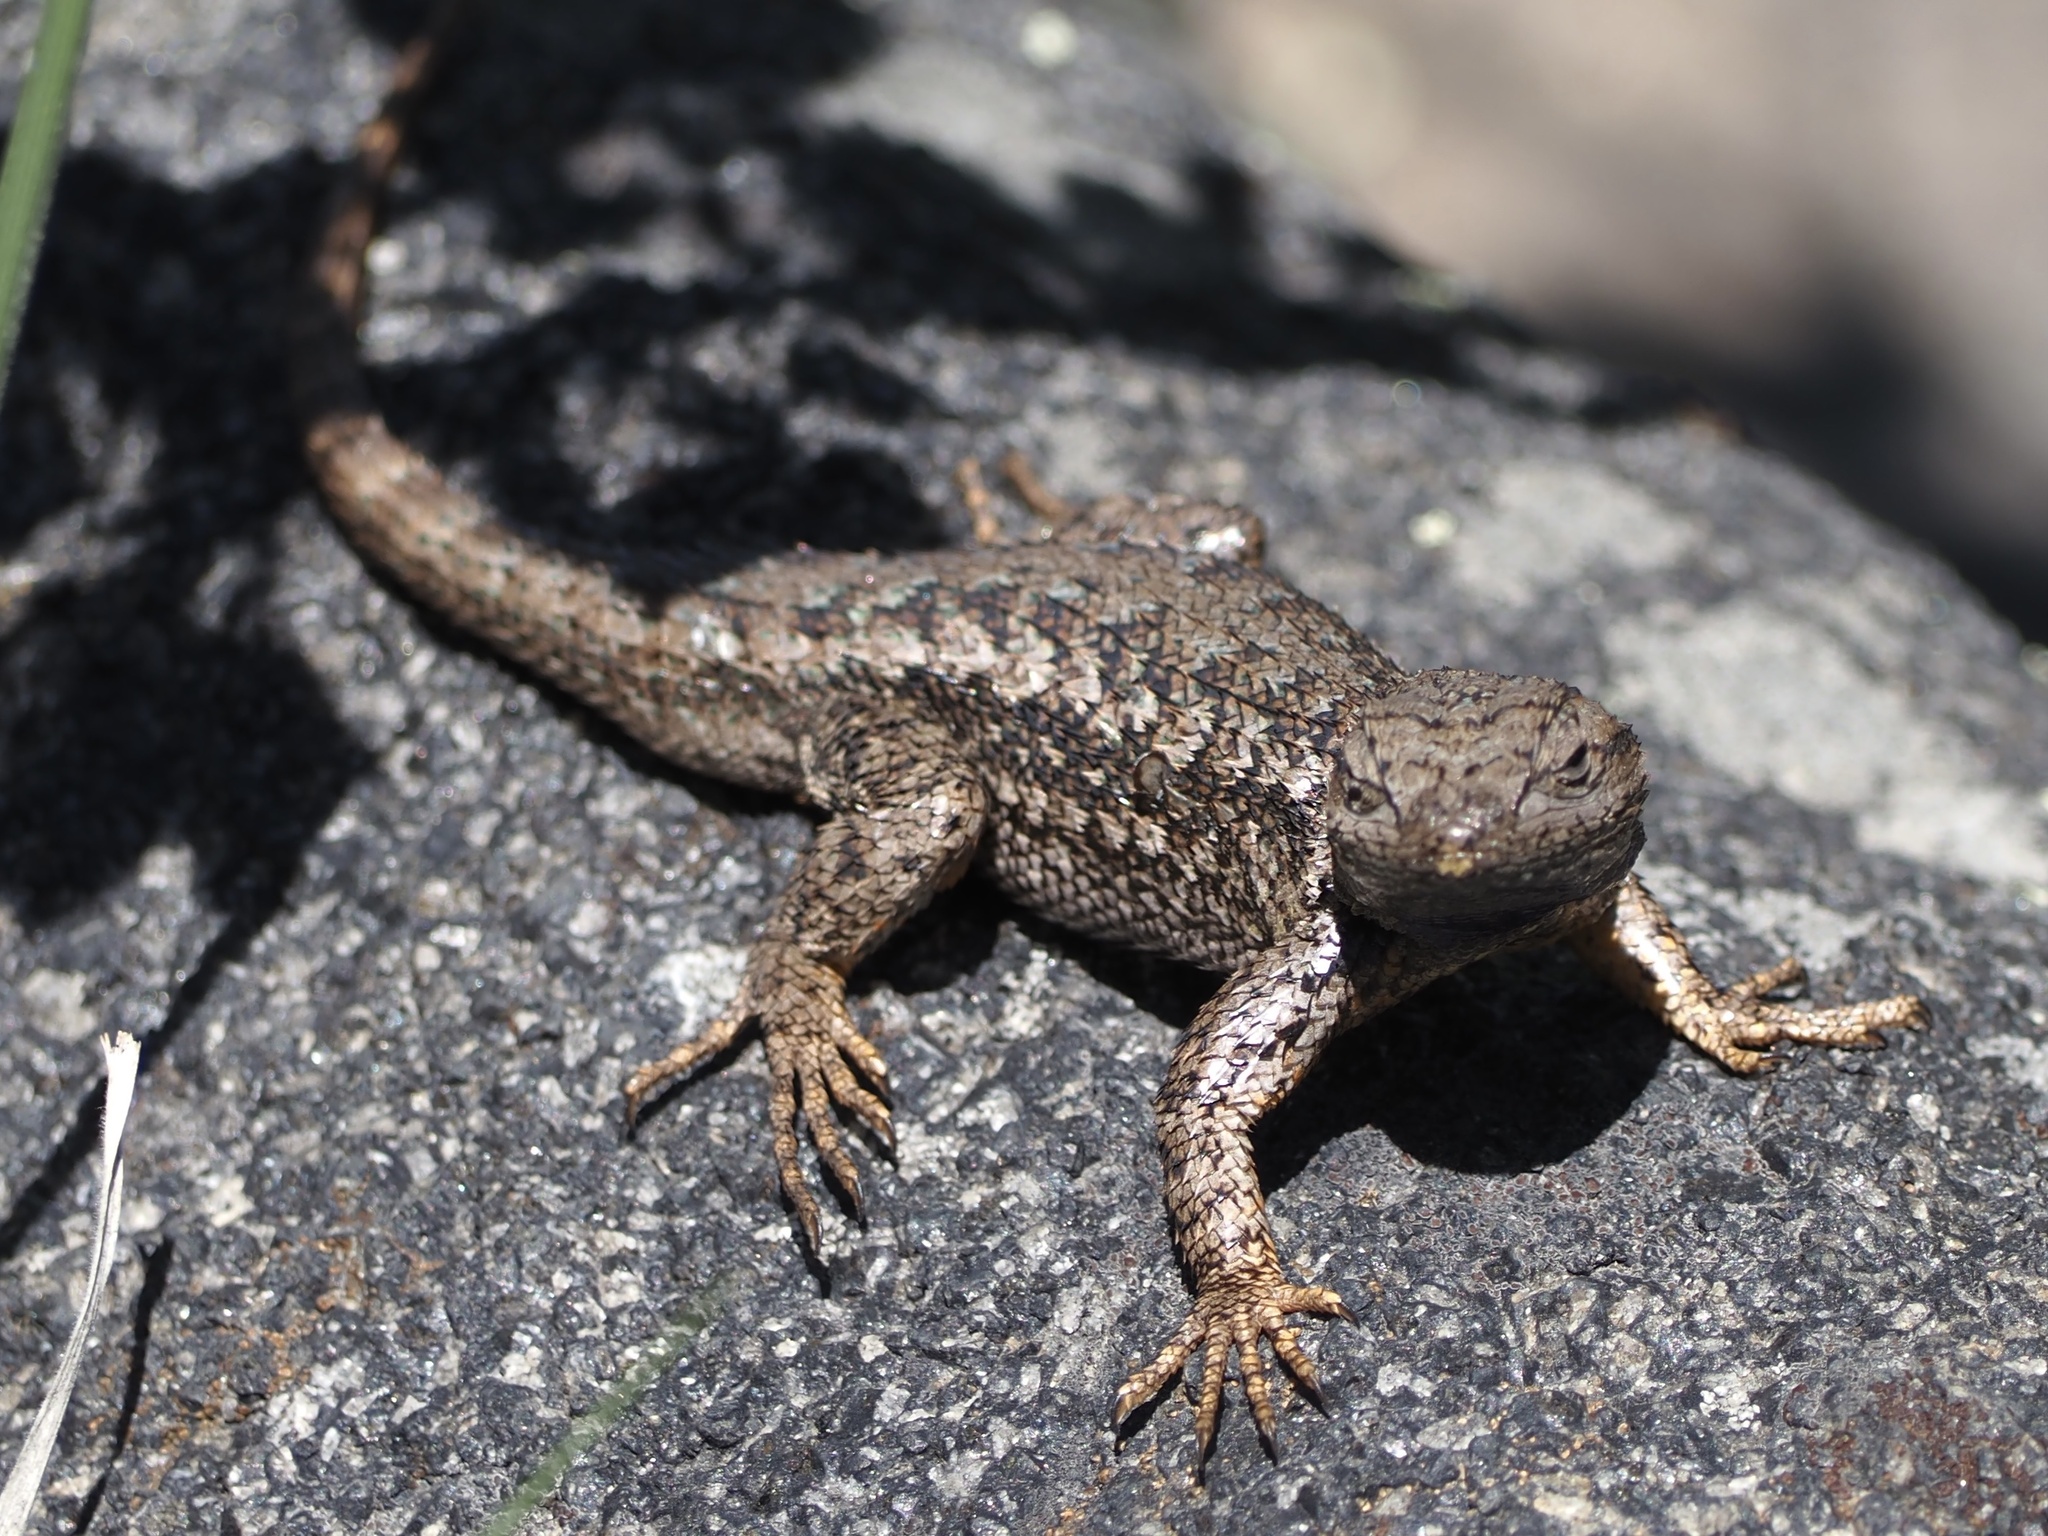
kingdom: Animalia
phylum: Chordata
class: Squamata
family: Phrynosomatidae
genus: Sceloporus
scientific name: Sceloporus occidentalis
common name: Western fence lizard
